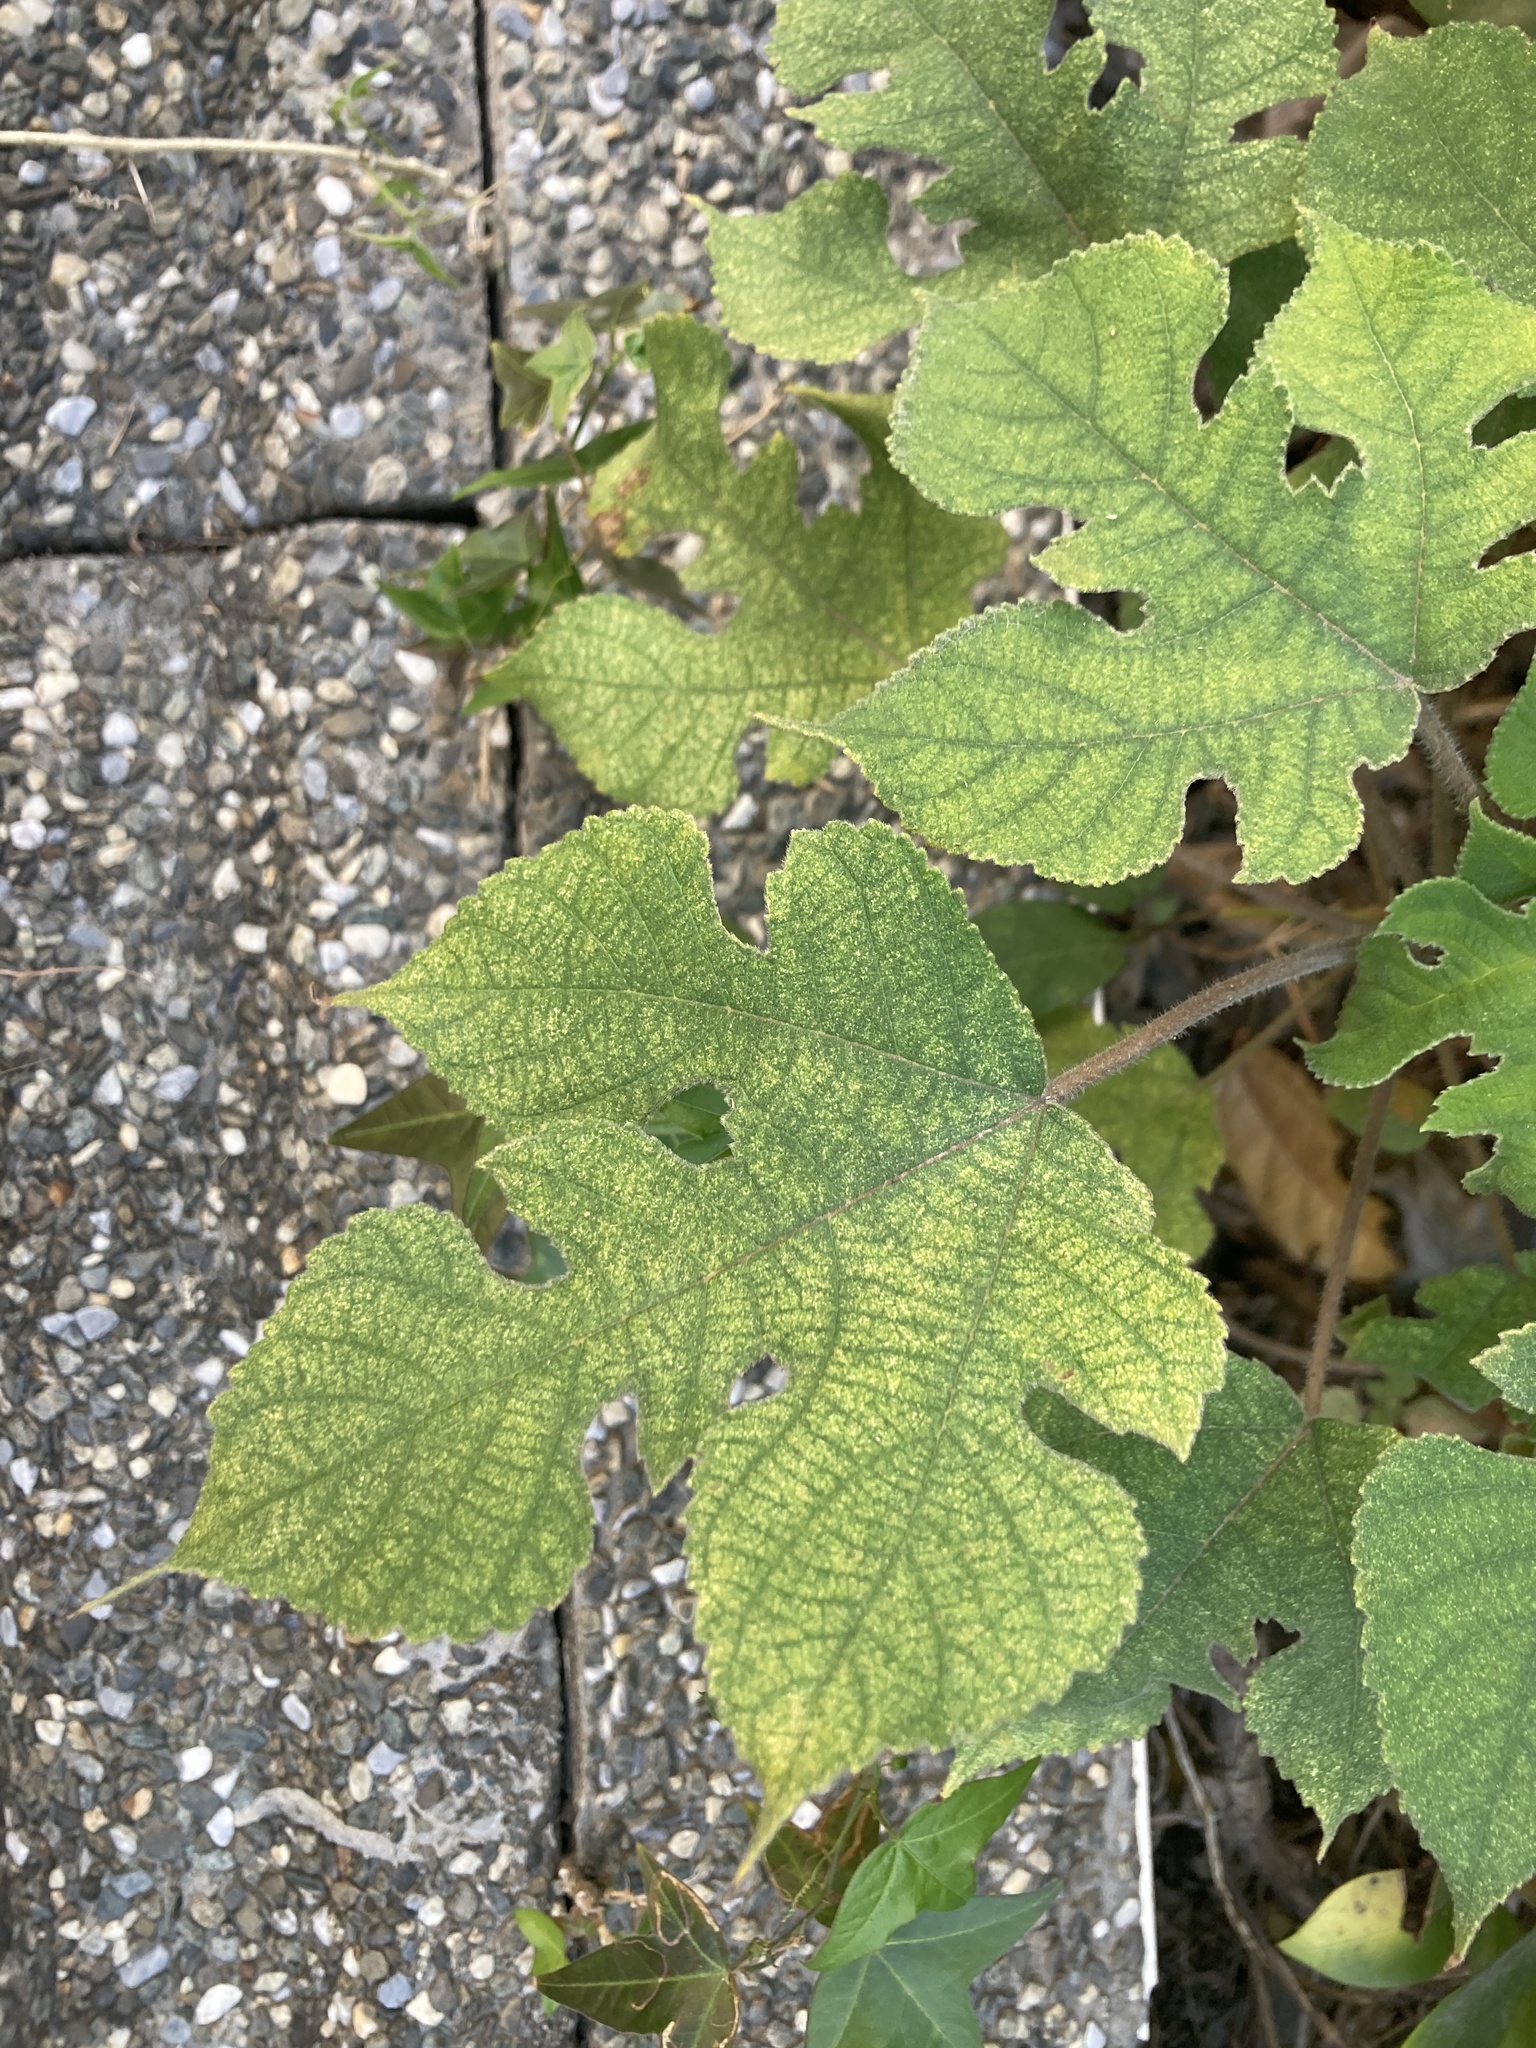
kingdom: Plantae
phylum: Tracheophyta
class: Magnoliopsida
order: Rosales
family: Moraceae
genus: Broussonetia
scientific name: Broussonetia papyrifera
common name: Paper mulberry
